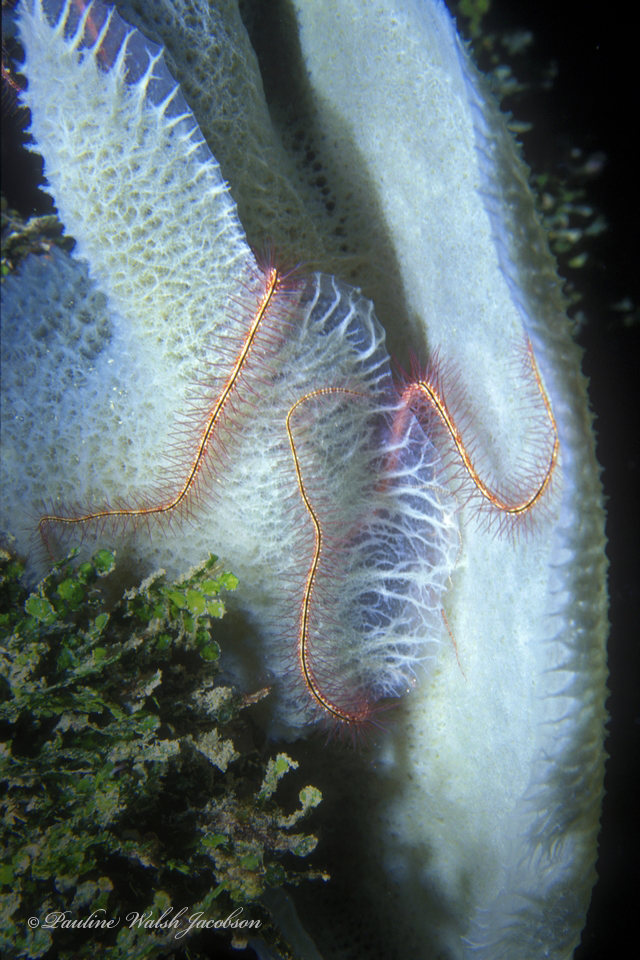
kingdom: Animalia
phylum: Echinodermata
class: Ophiuroidea
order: Amphilepidida
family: Ophiotrichidae
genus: Ophiothrix
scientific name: Ophiothrix suensonii
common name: Sponge brittle star
